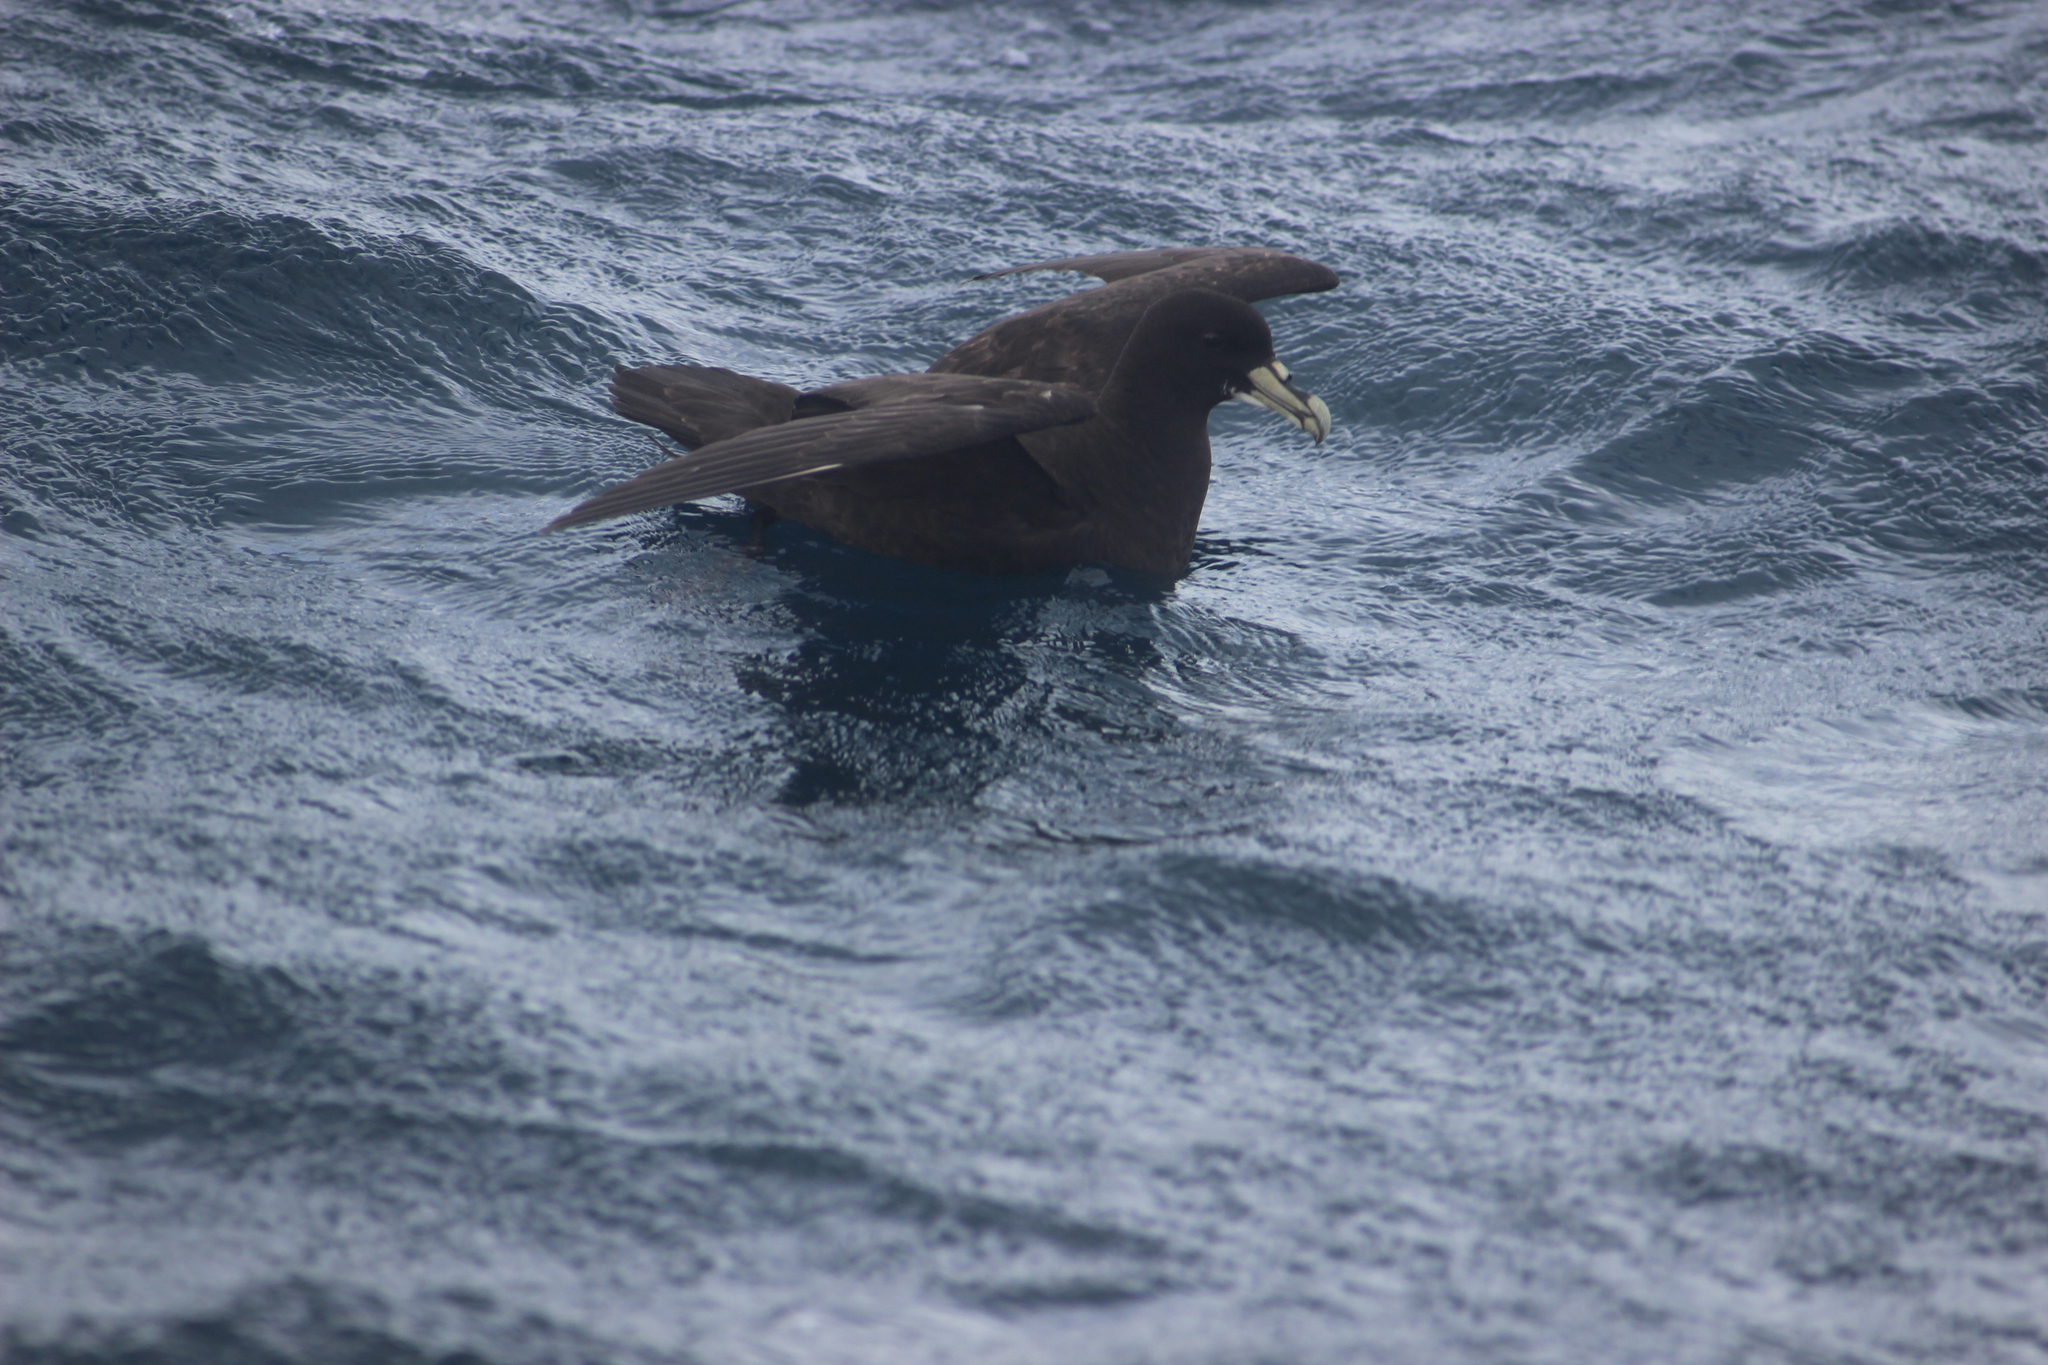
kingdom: Animalia
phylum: Chordata
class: Aves
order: Procellariiformes
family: Procellariidae
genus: Procellaria
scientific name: Procellaria aequinoctialis
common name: White-chinned petrel
